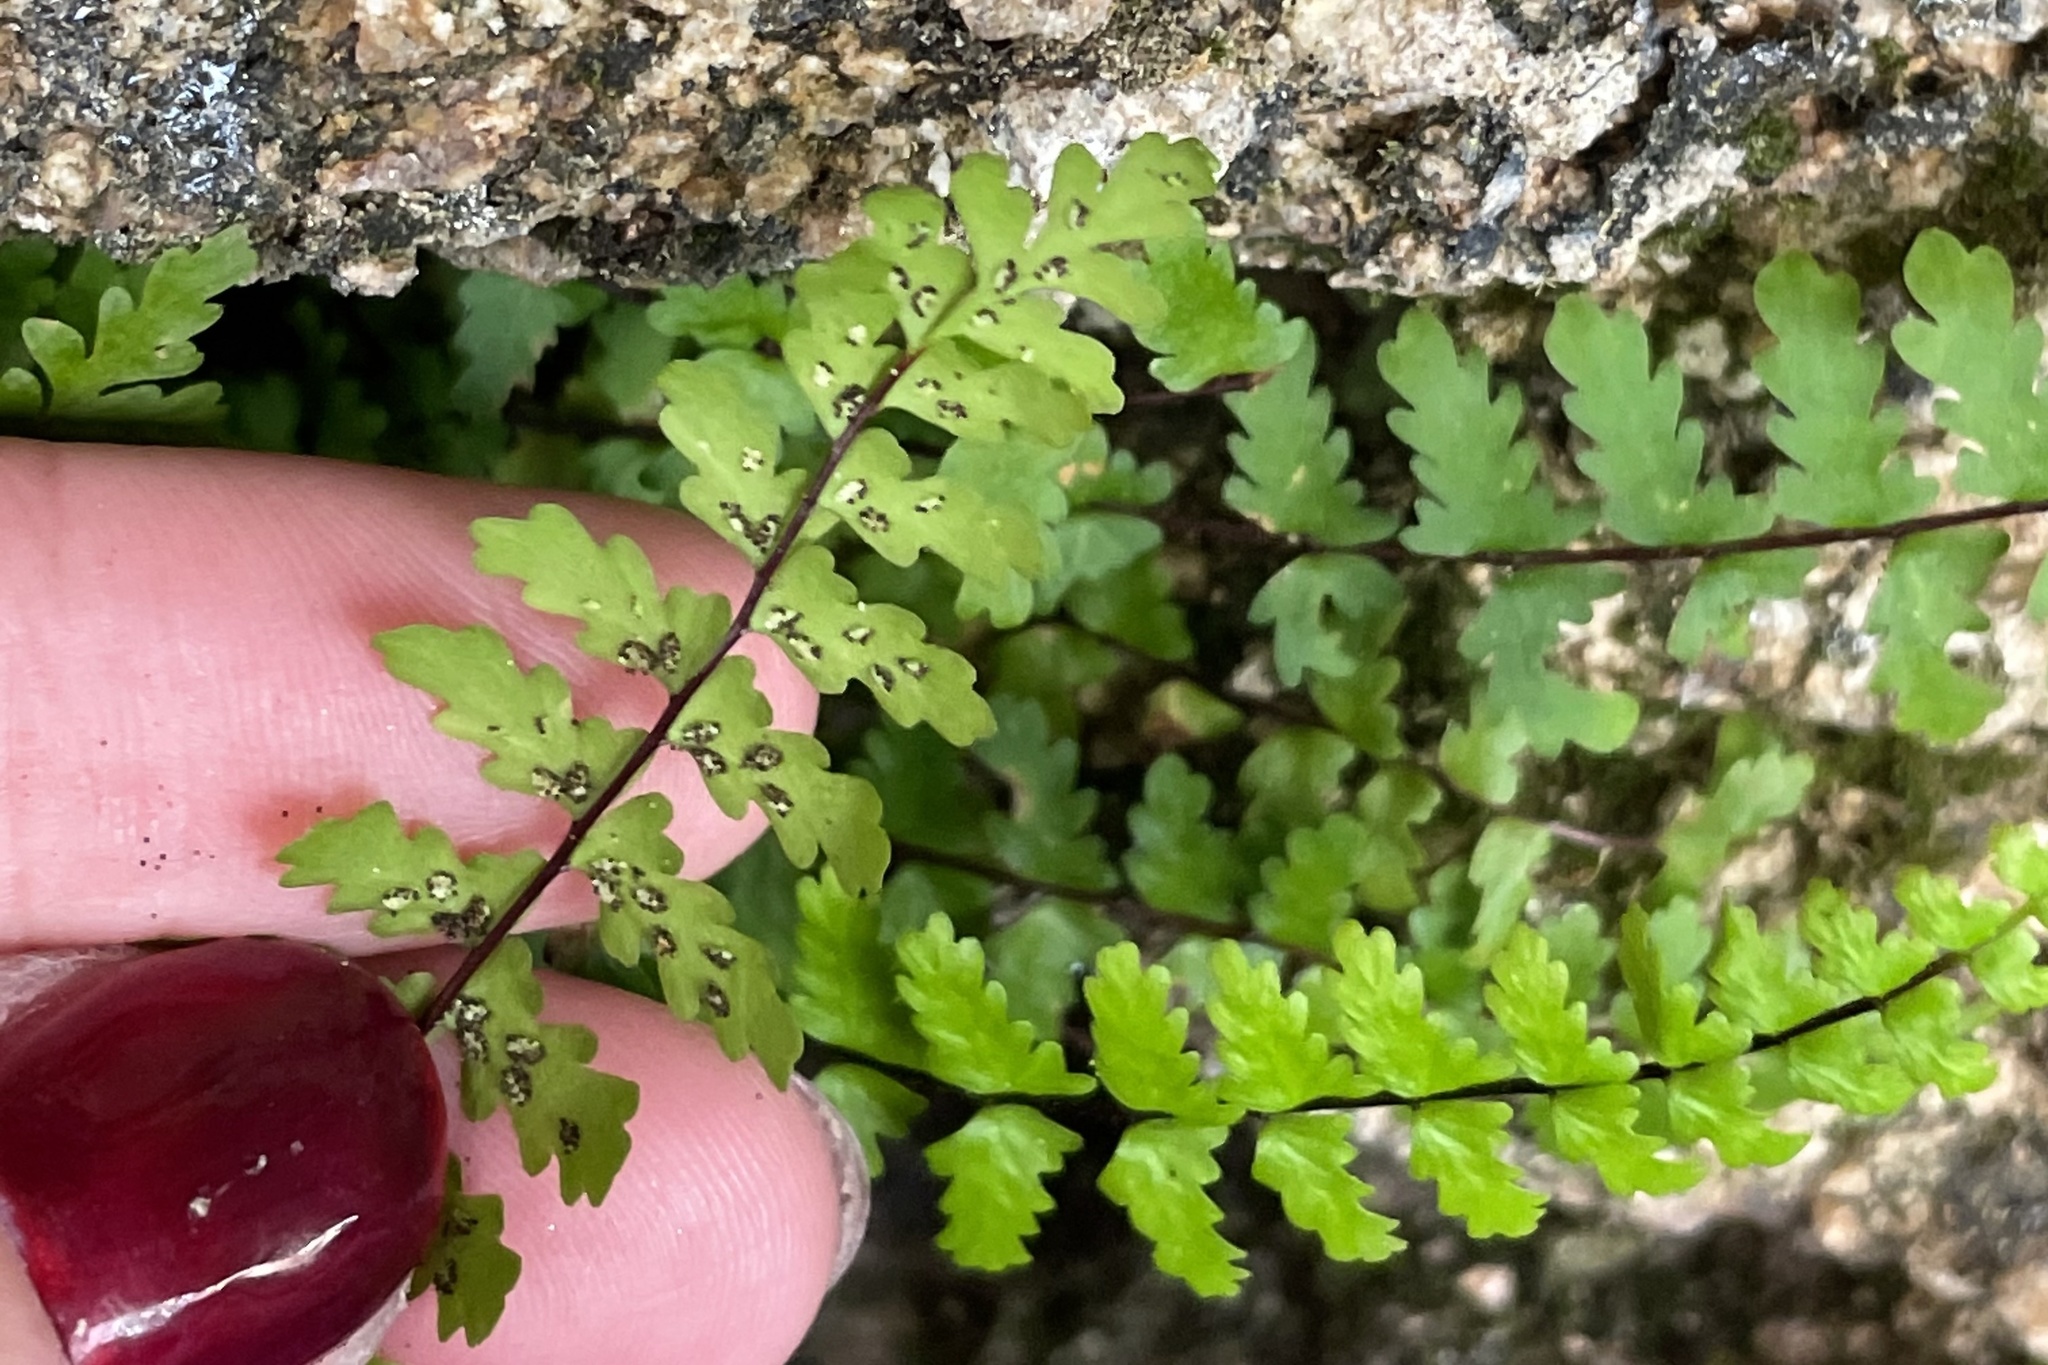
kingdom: Plantae
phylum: Tracheophyta
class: Polypodiopsida
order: Polypodiales
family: Aspleniaceae
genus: Asplenium
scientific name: Asplenium vespertinum
